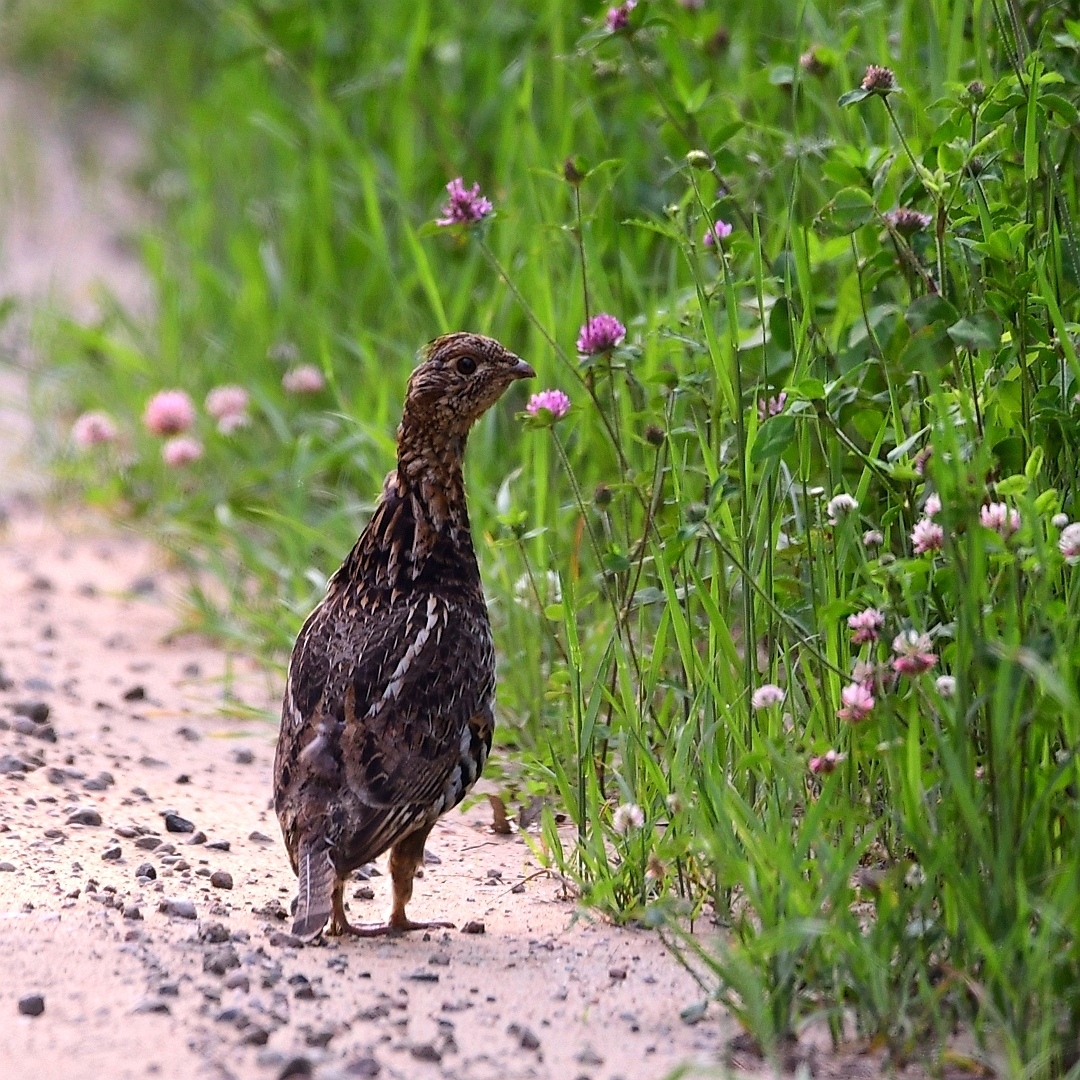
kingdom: Animalia
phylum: Chordata
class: Aves
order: Galliformes
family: Phasianidae
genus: Bonasa
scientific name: Bonasa umbellus
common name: Ruffed grouse
